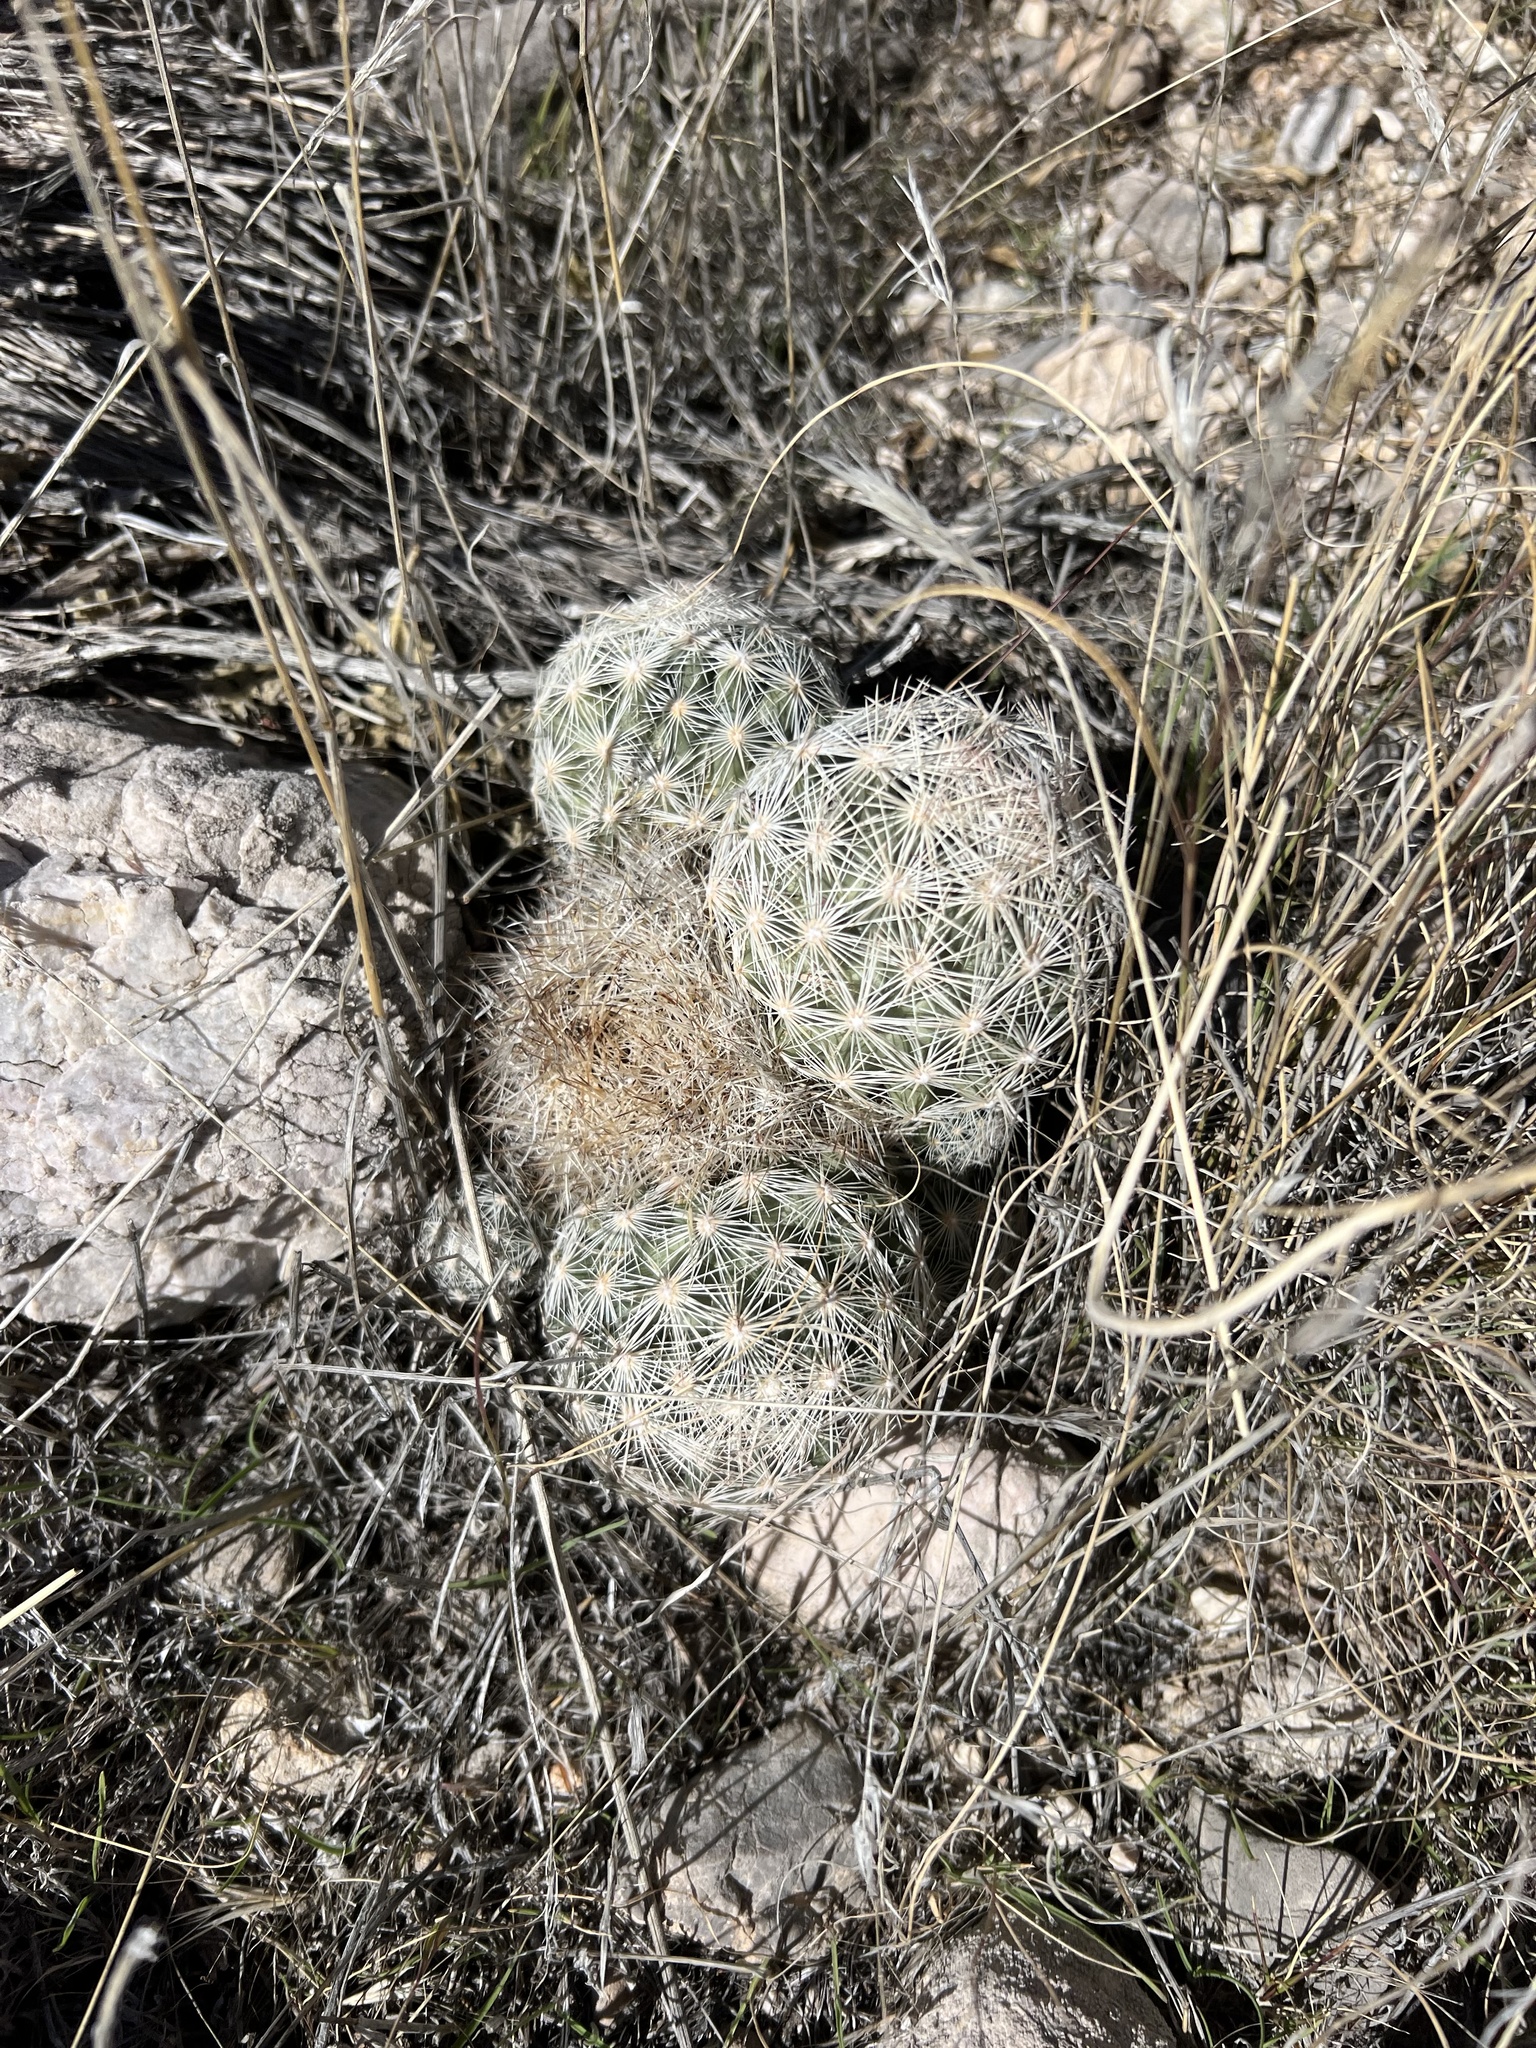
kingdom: Plantae
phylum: Tracheophyta
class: Magnoliopsida
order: Caryophyllales
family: Cactaceae
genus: Pelecyphora
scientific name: Pelecyphora dasyacantha
